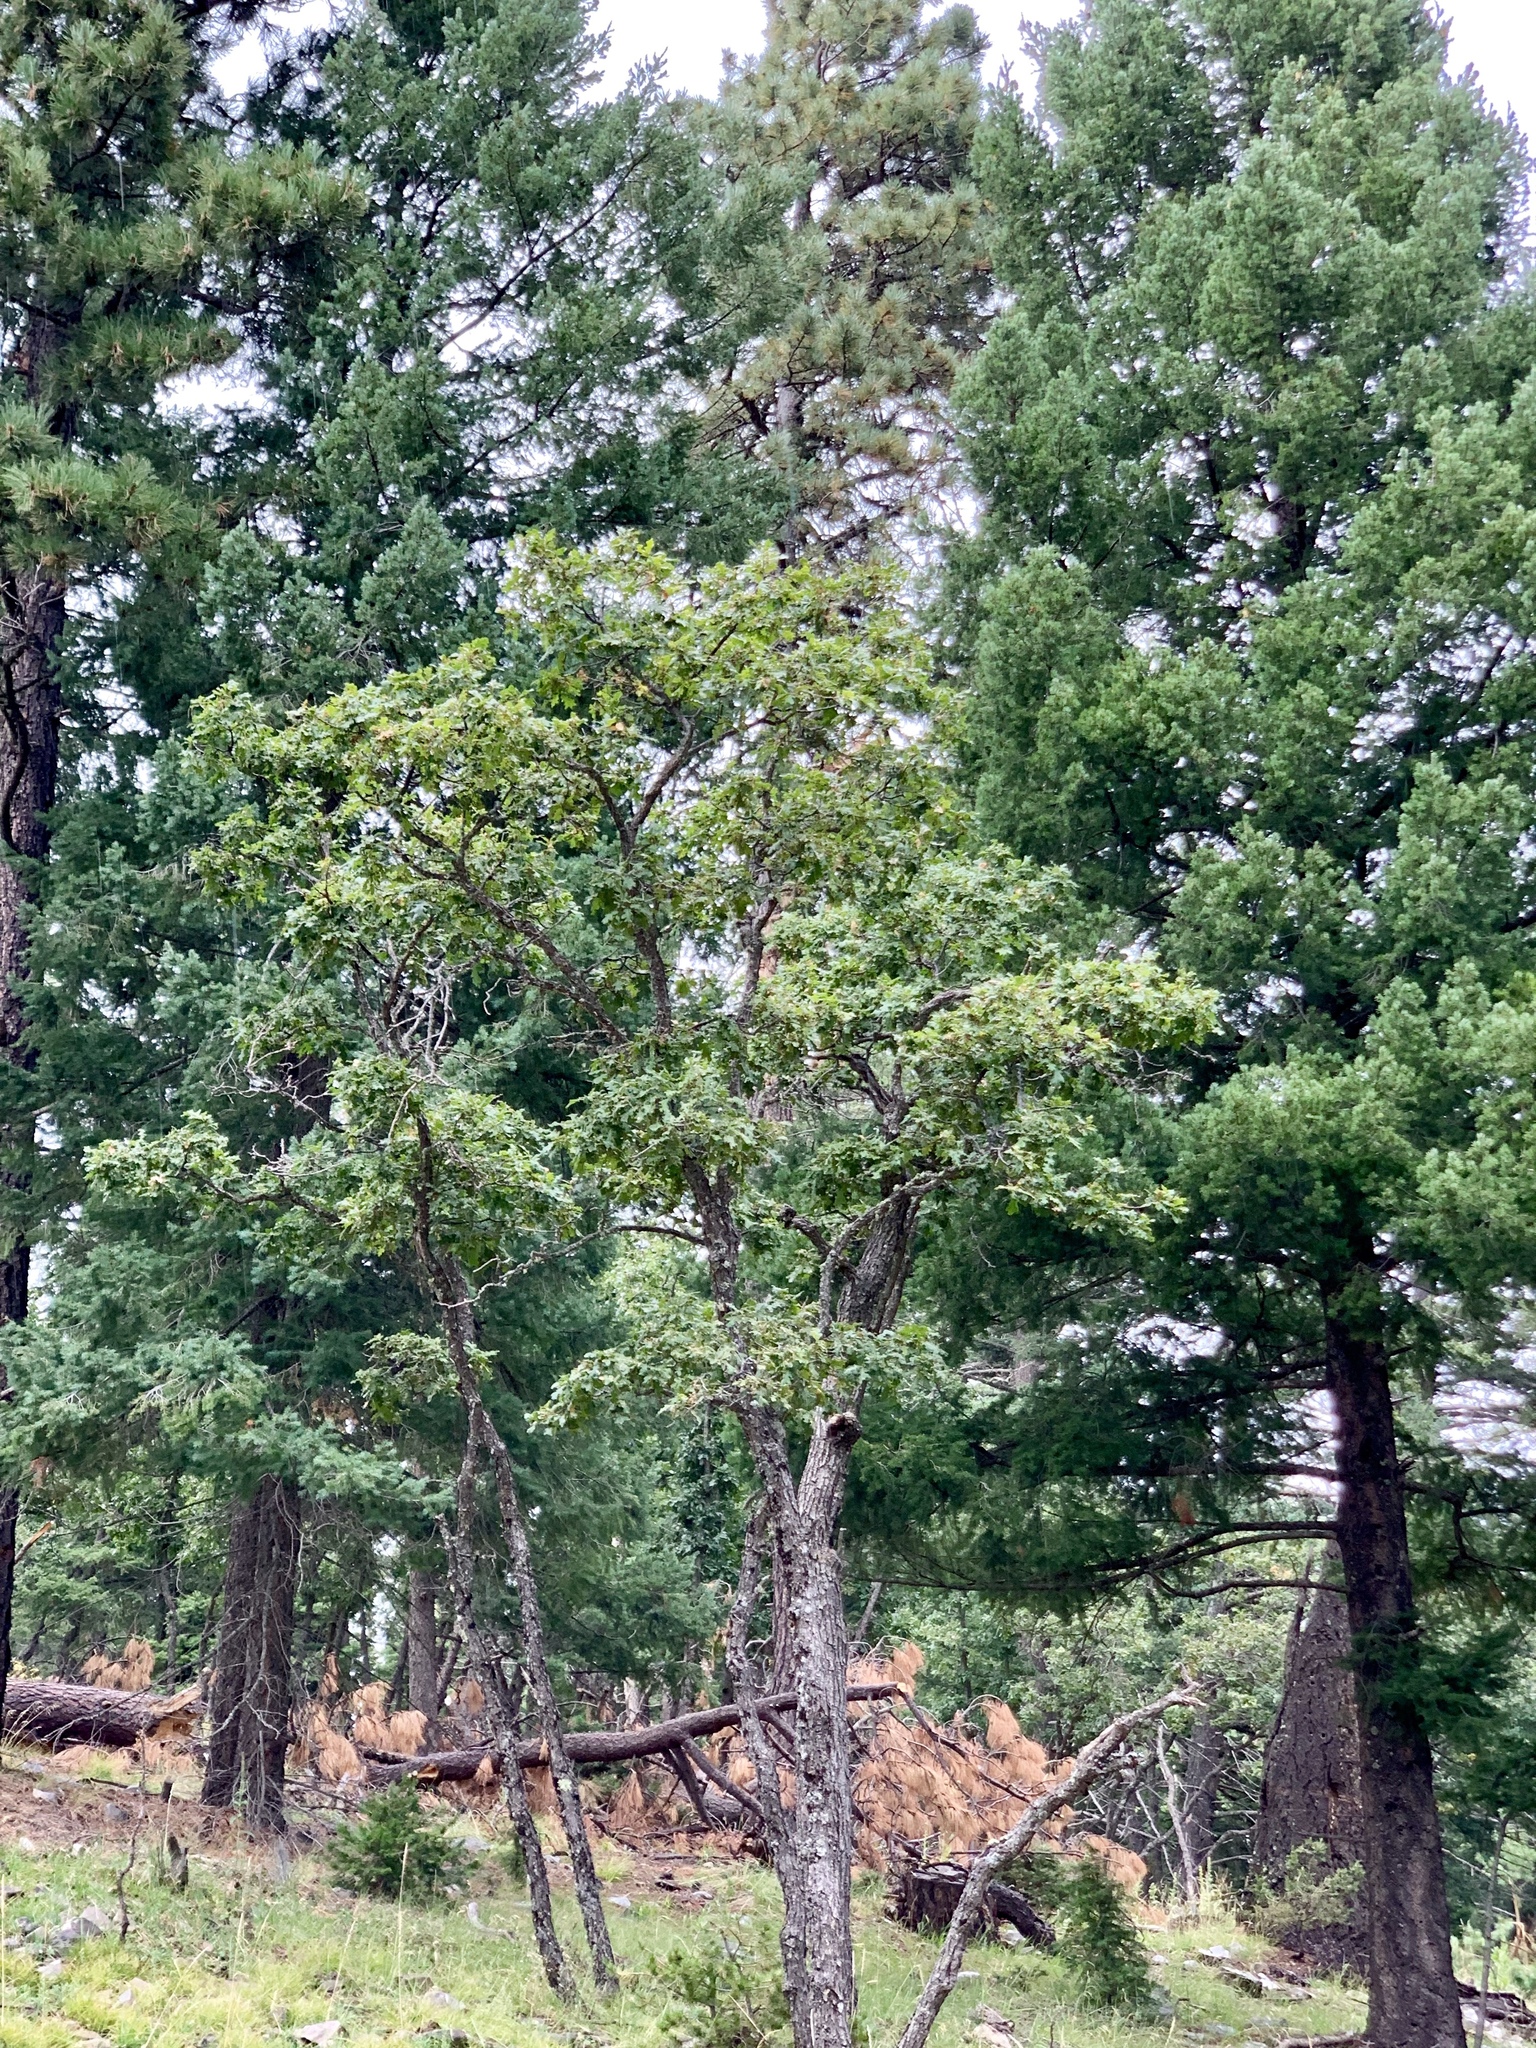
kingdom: Plantae
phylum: Tracheophyta
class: Magnoliopsida
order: Fagales
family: Fagaceae
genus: Quercus
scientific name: Quercus gambelii
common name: Gambel oak
